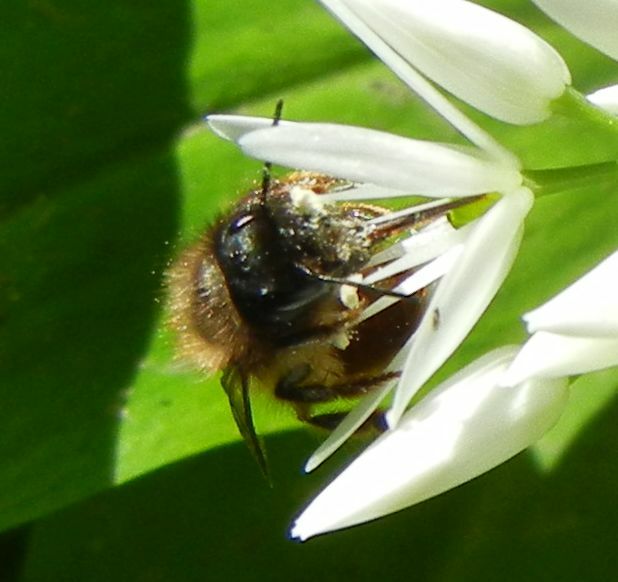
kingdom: Animalia
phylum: Arthropoda
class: Insecta
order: Hymenoptera
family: Megachilidae
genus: Osmia
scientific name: Osmia bicornis
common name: Red mason bee
